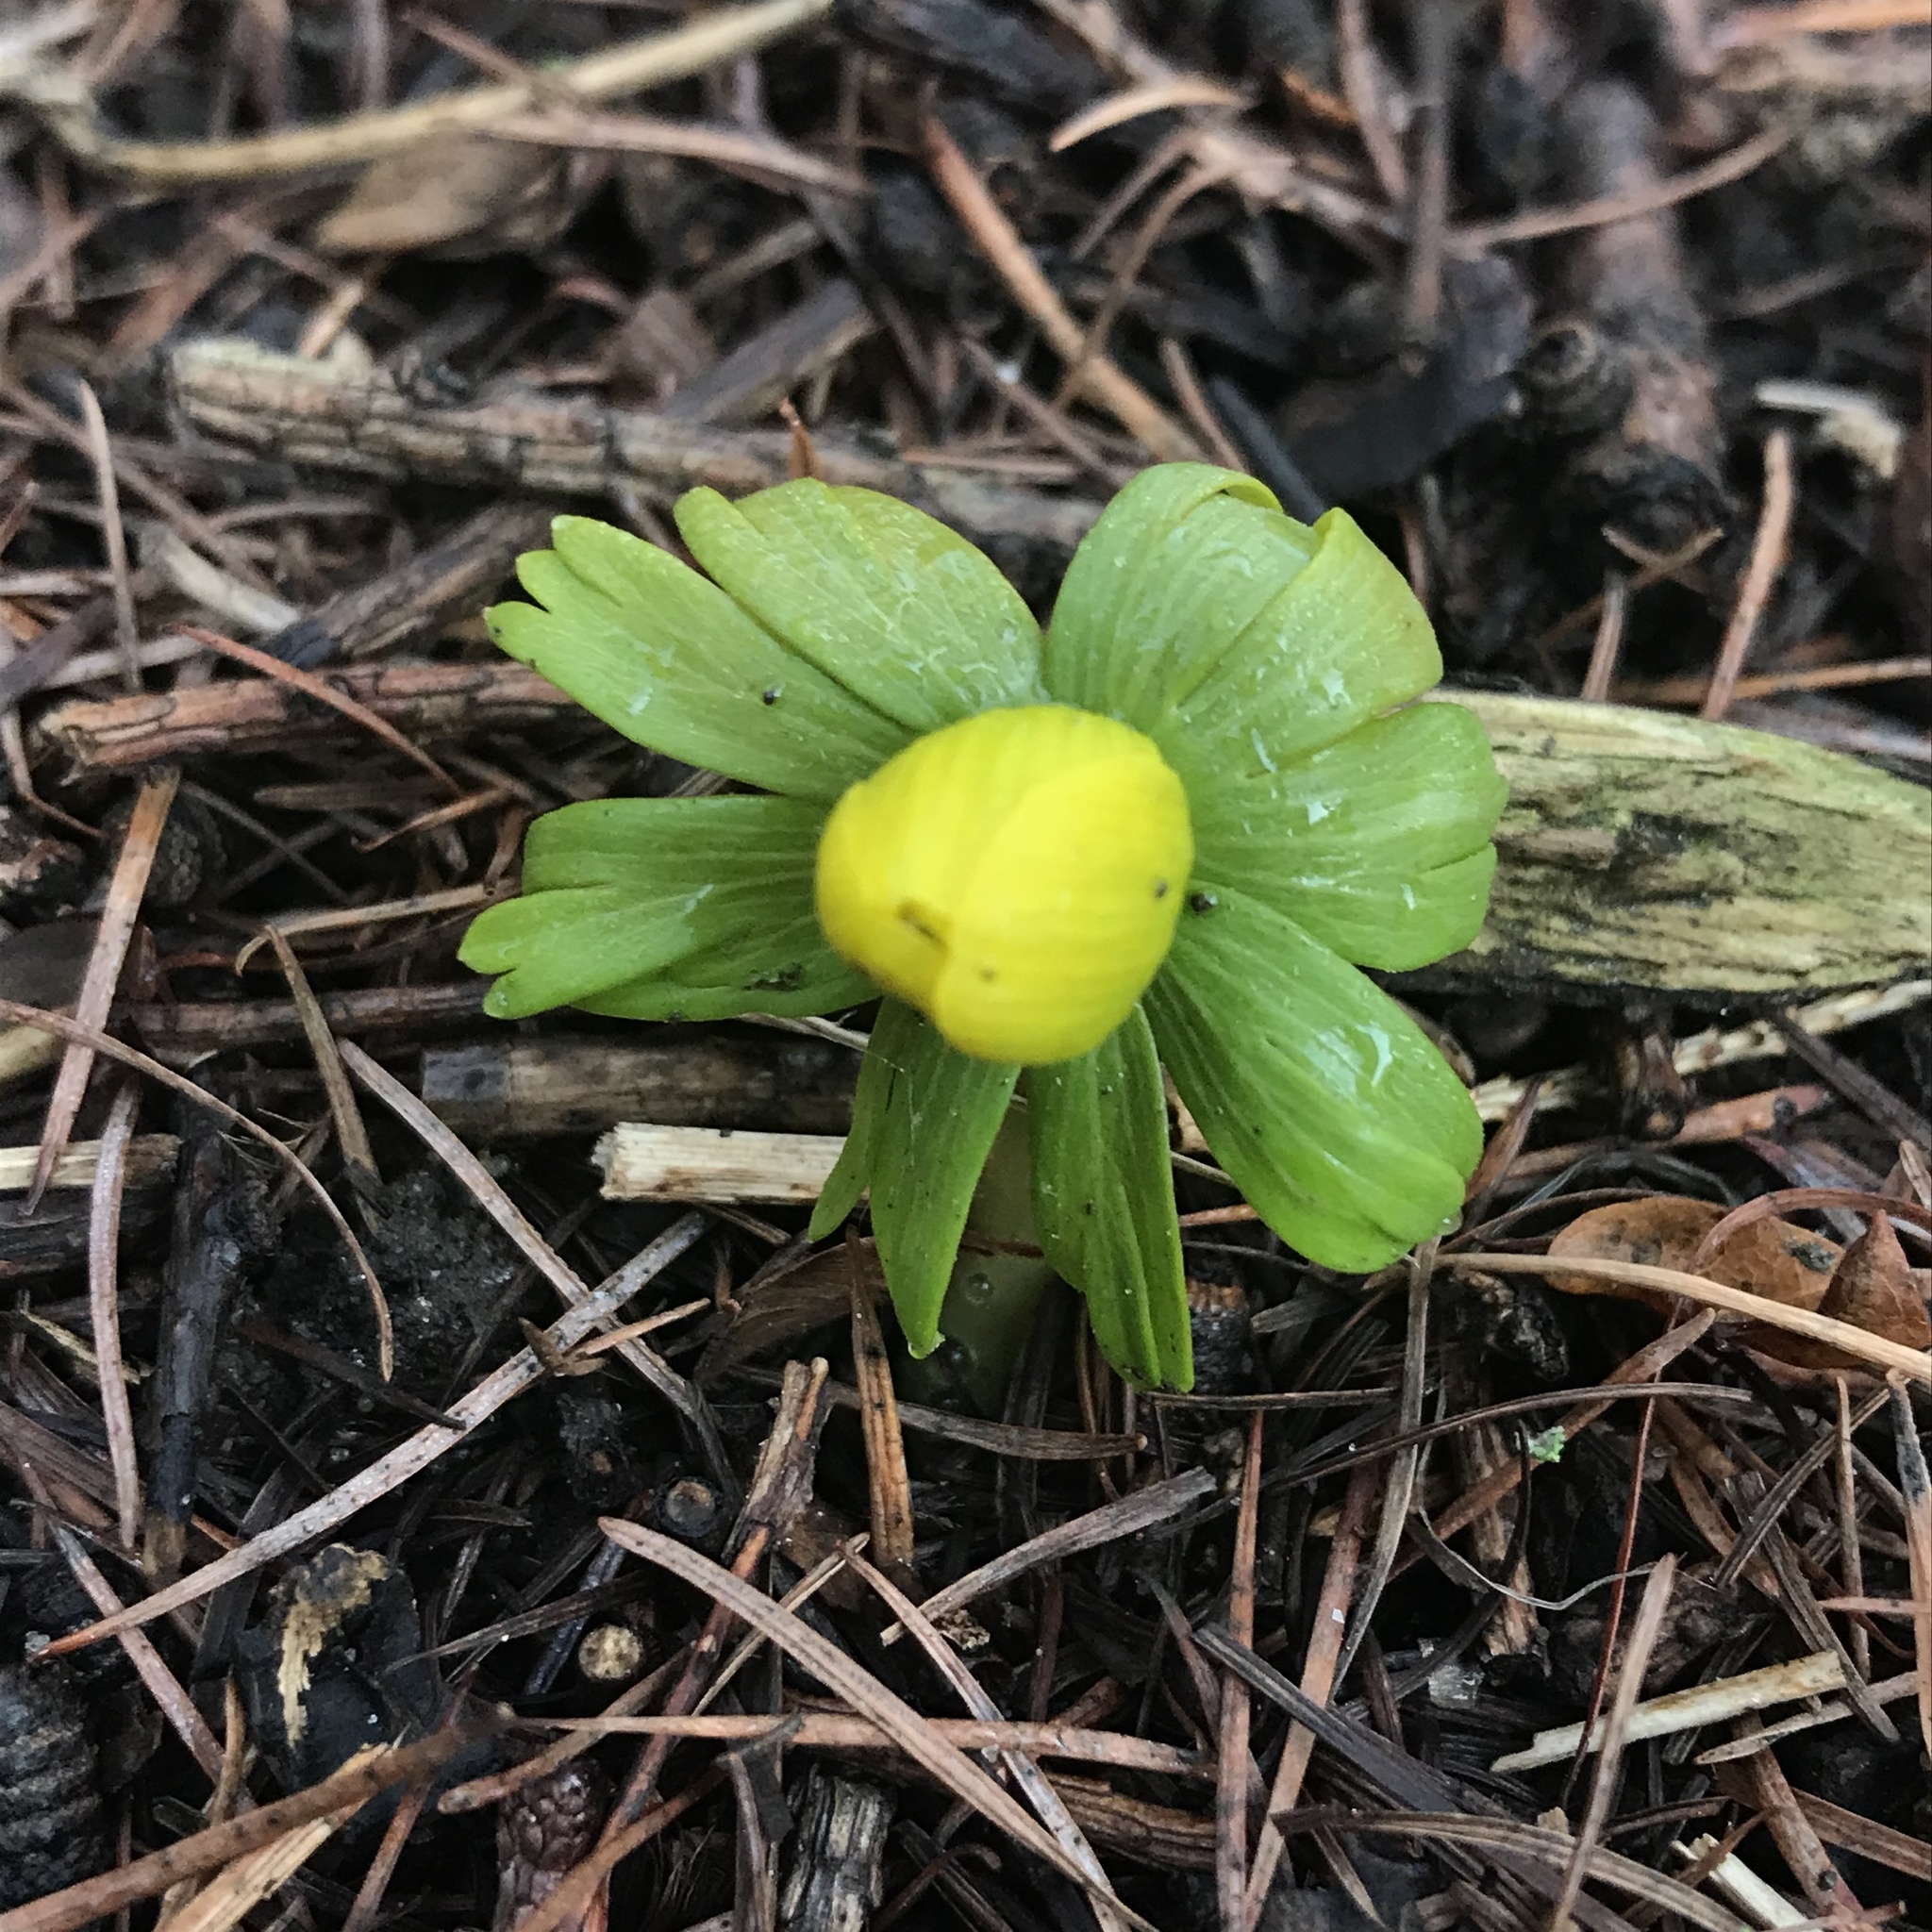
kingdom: Plantae
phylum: Tracheophyta
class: Magnoliopsida
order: Ranunculales
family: Ranunculaceae
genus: Eranthis
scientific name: Eranthis hyemalis
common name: Winter aconite
